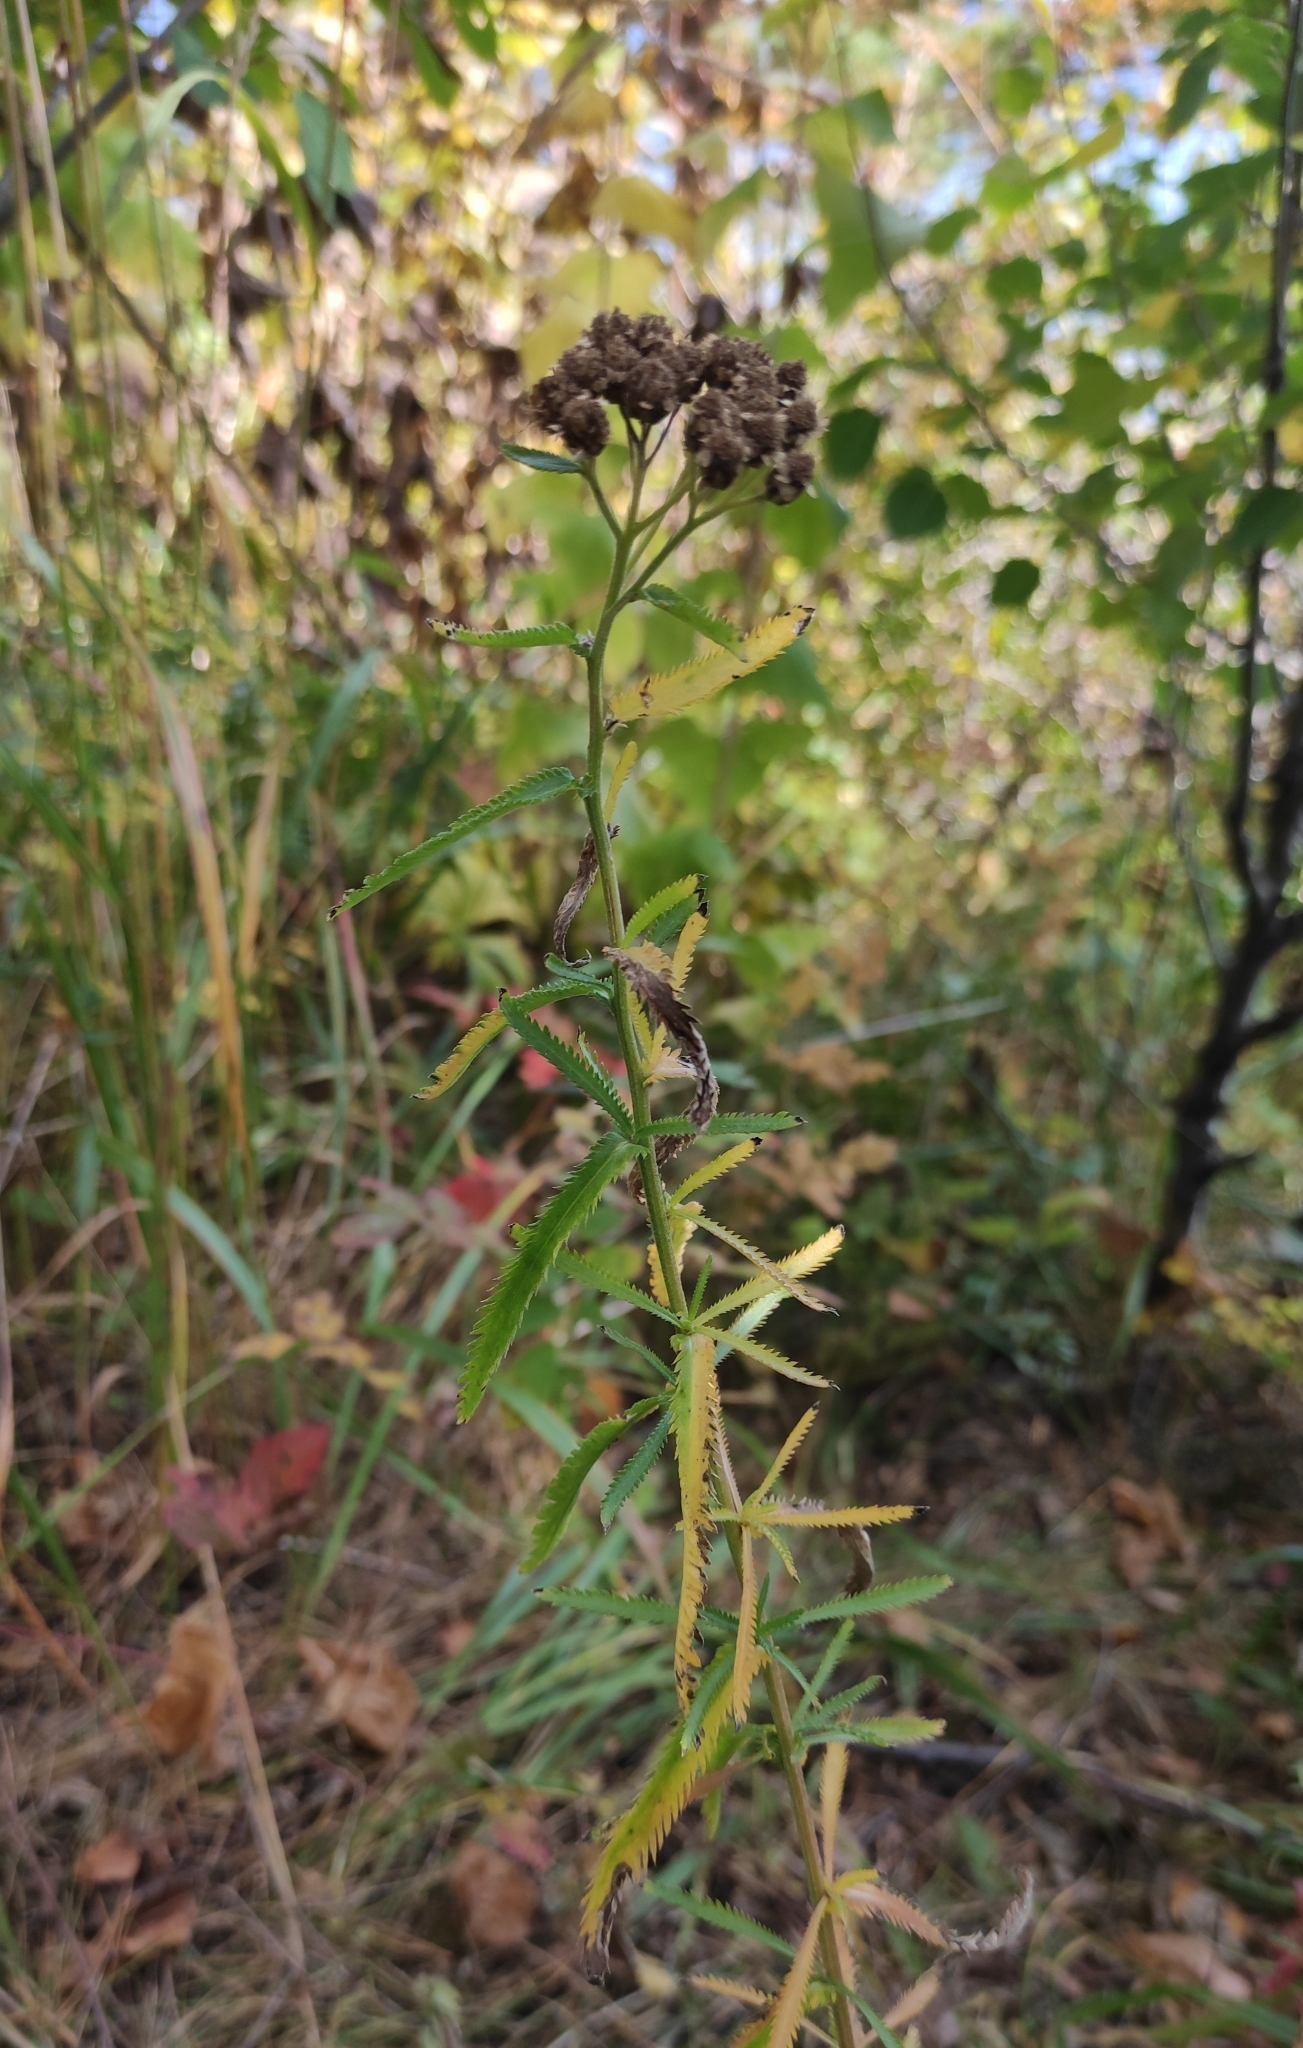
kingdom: Plantae
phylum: Tracheophyta
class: Magnoliopsida
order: Asterales
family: Asteraceae
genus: Achillea
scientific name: Achillea alpina
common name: Siberian yarrow
